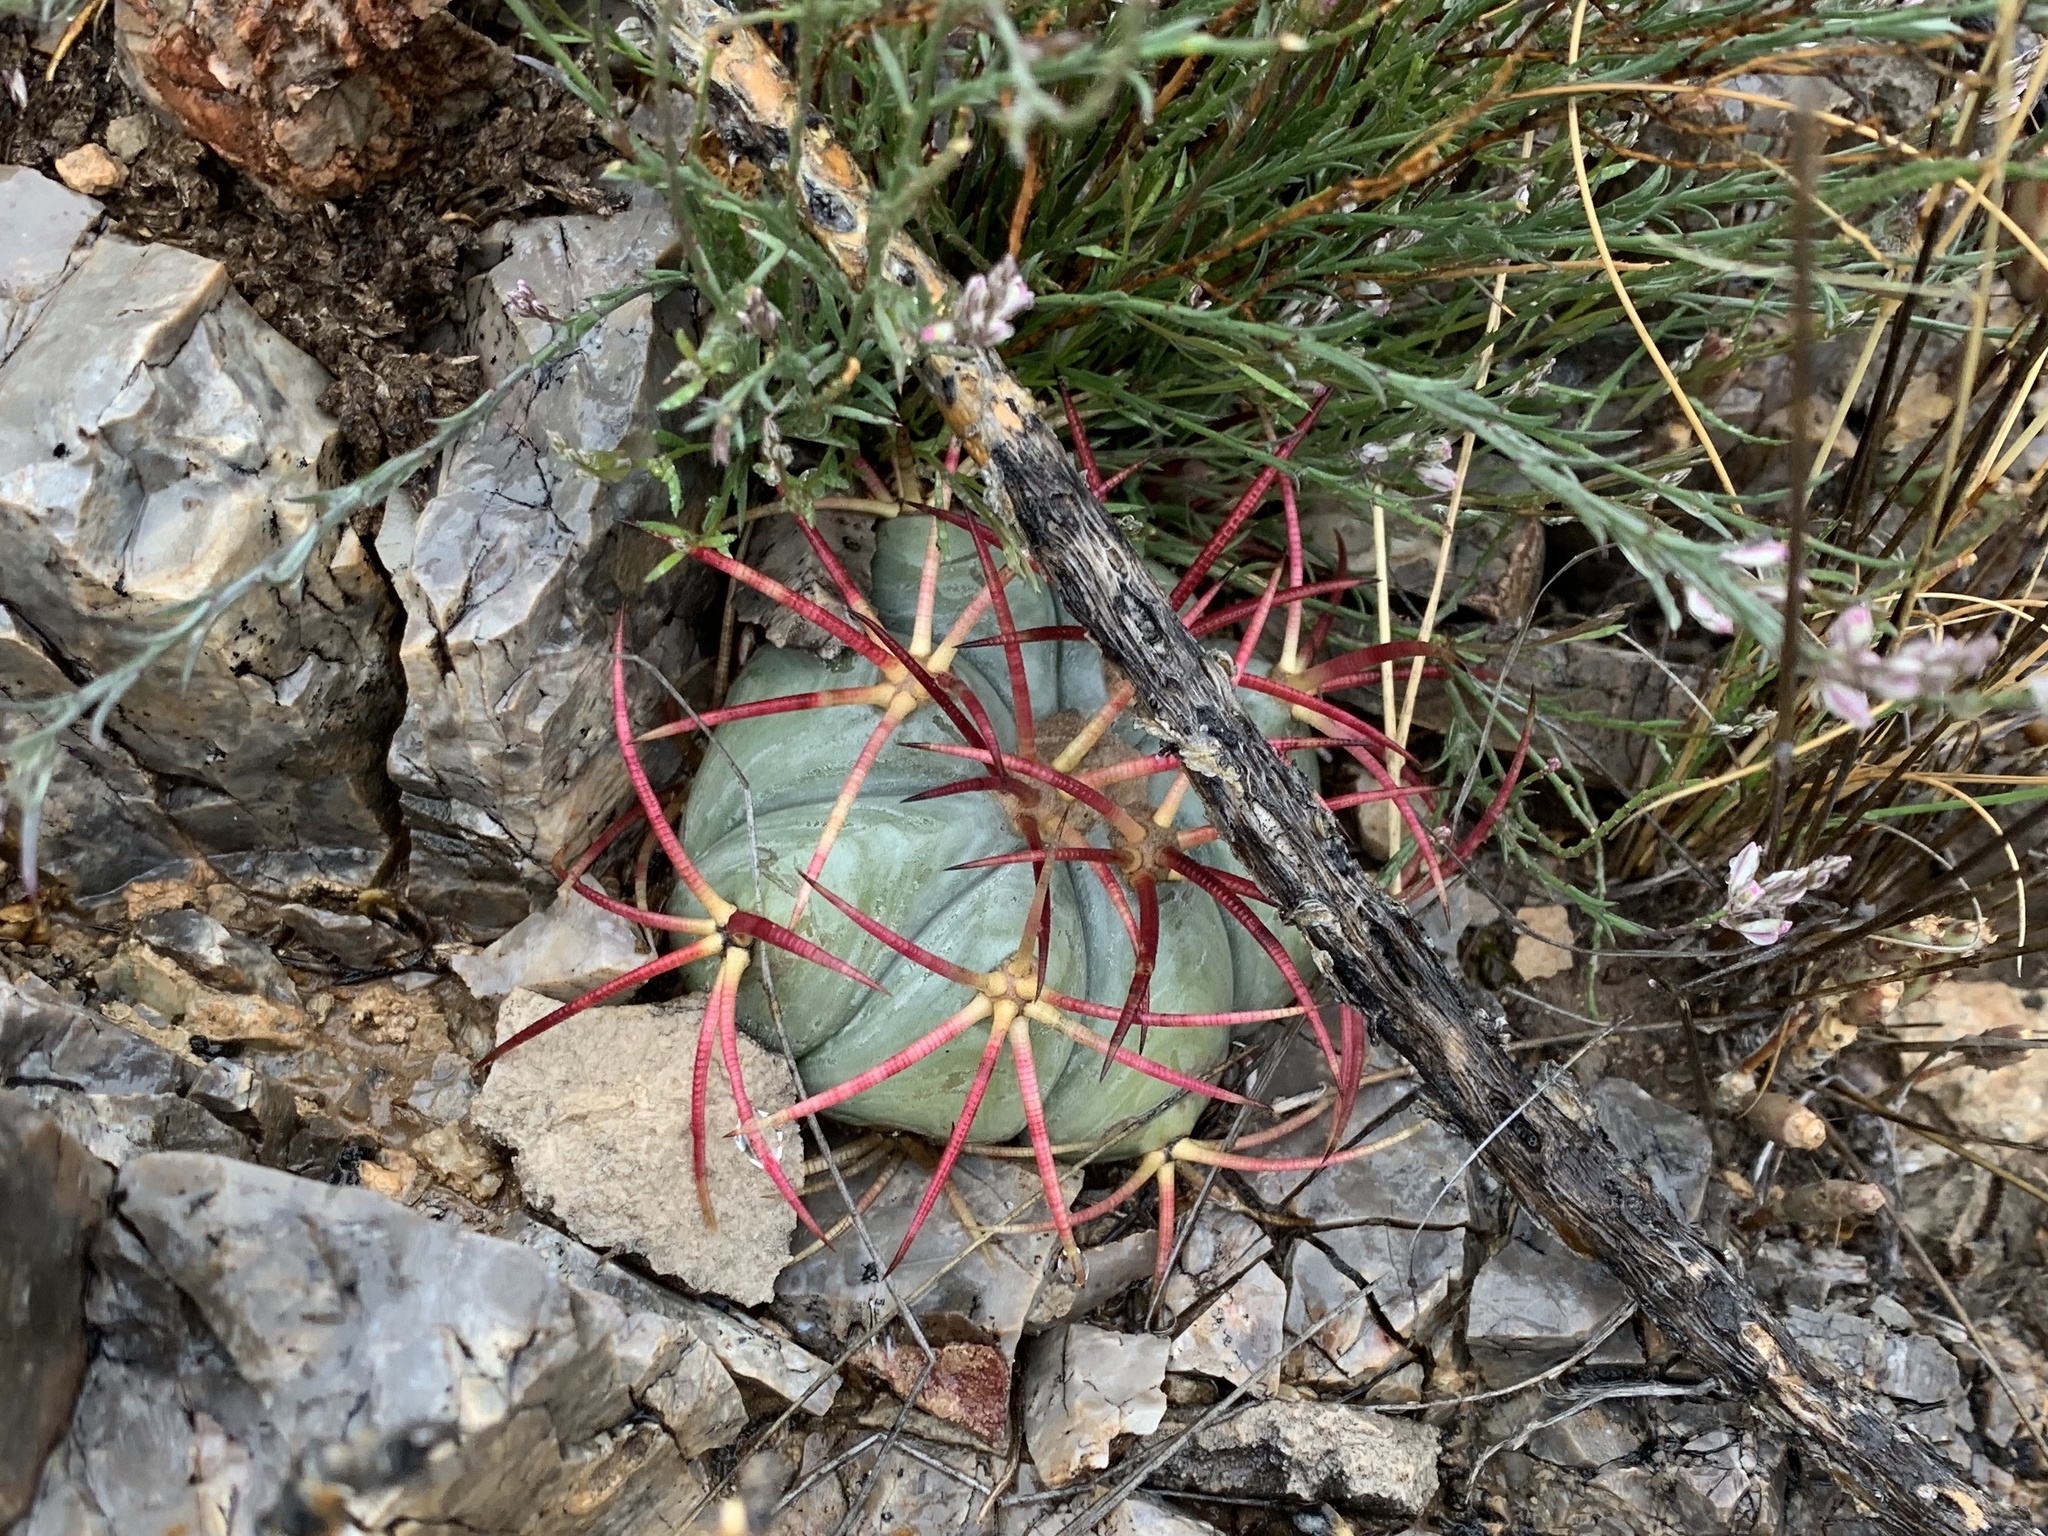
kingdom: Plantae
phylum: Tracheophyta
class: Magnoliopsida
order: Caryophyllales
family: Cactaceae
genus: Echinocactus
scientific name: Echinocactus horizonthalonius
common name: Devilshead
